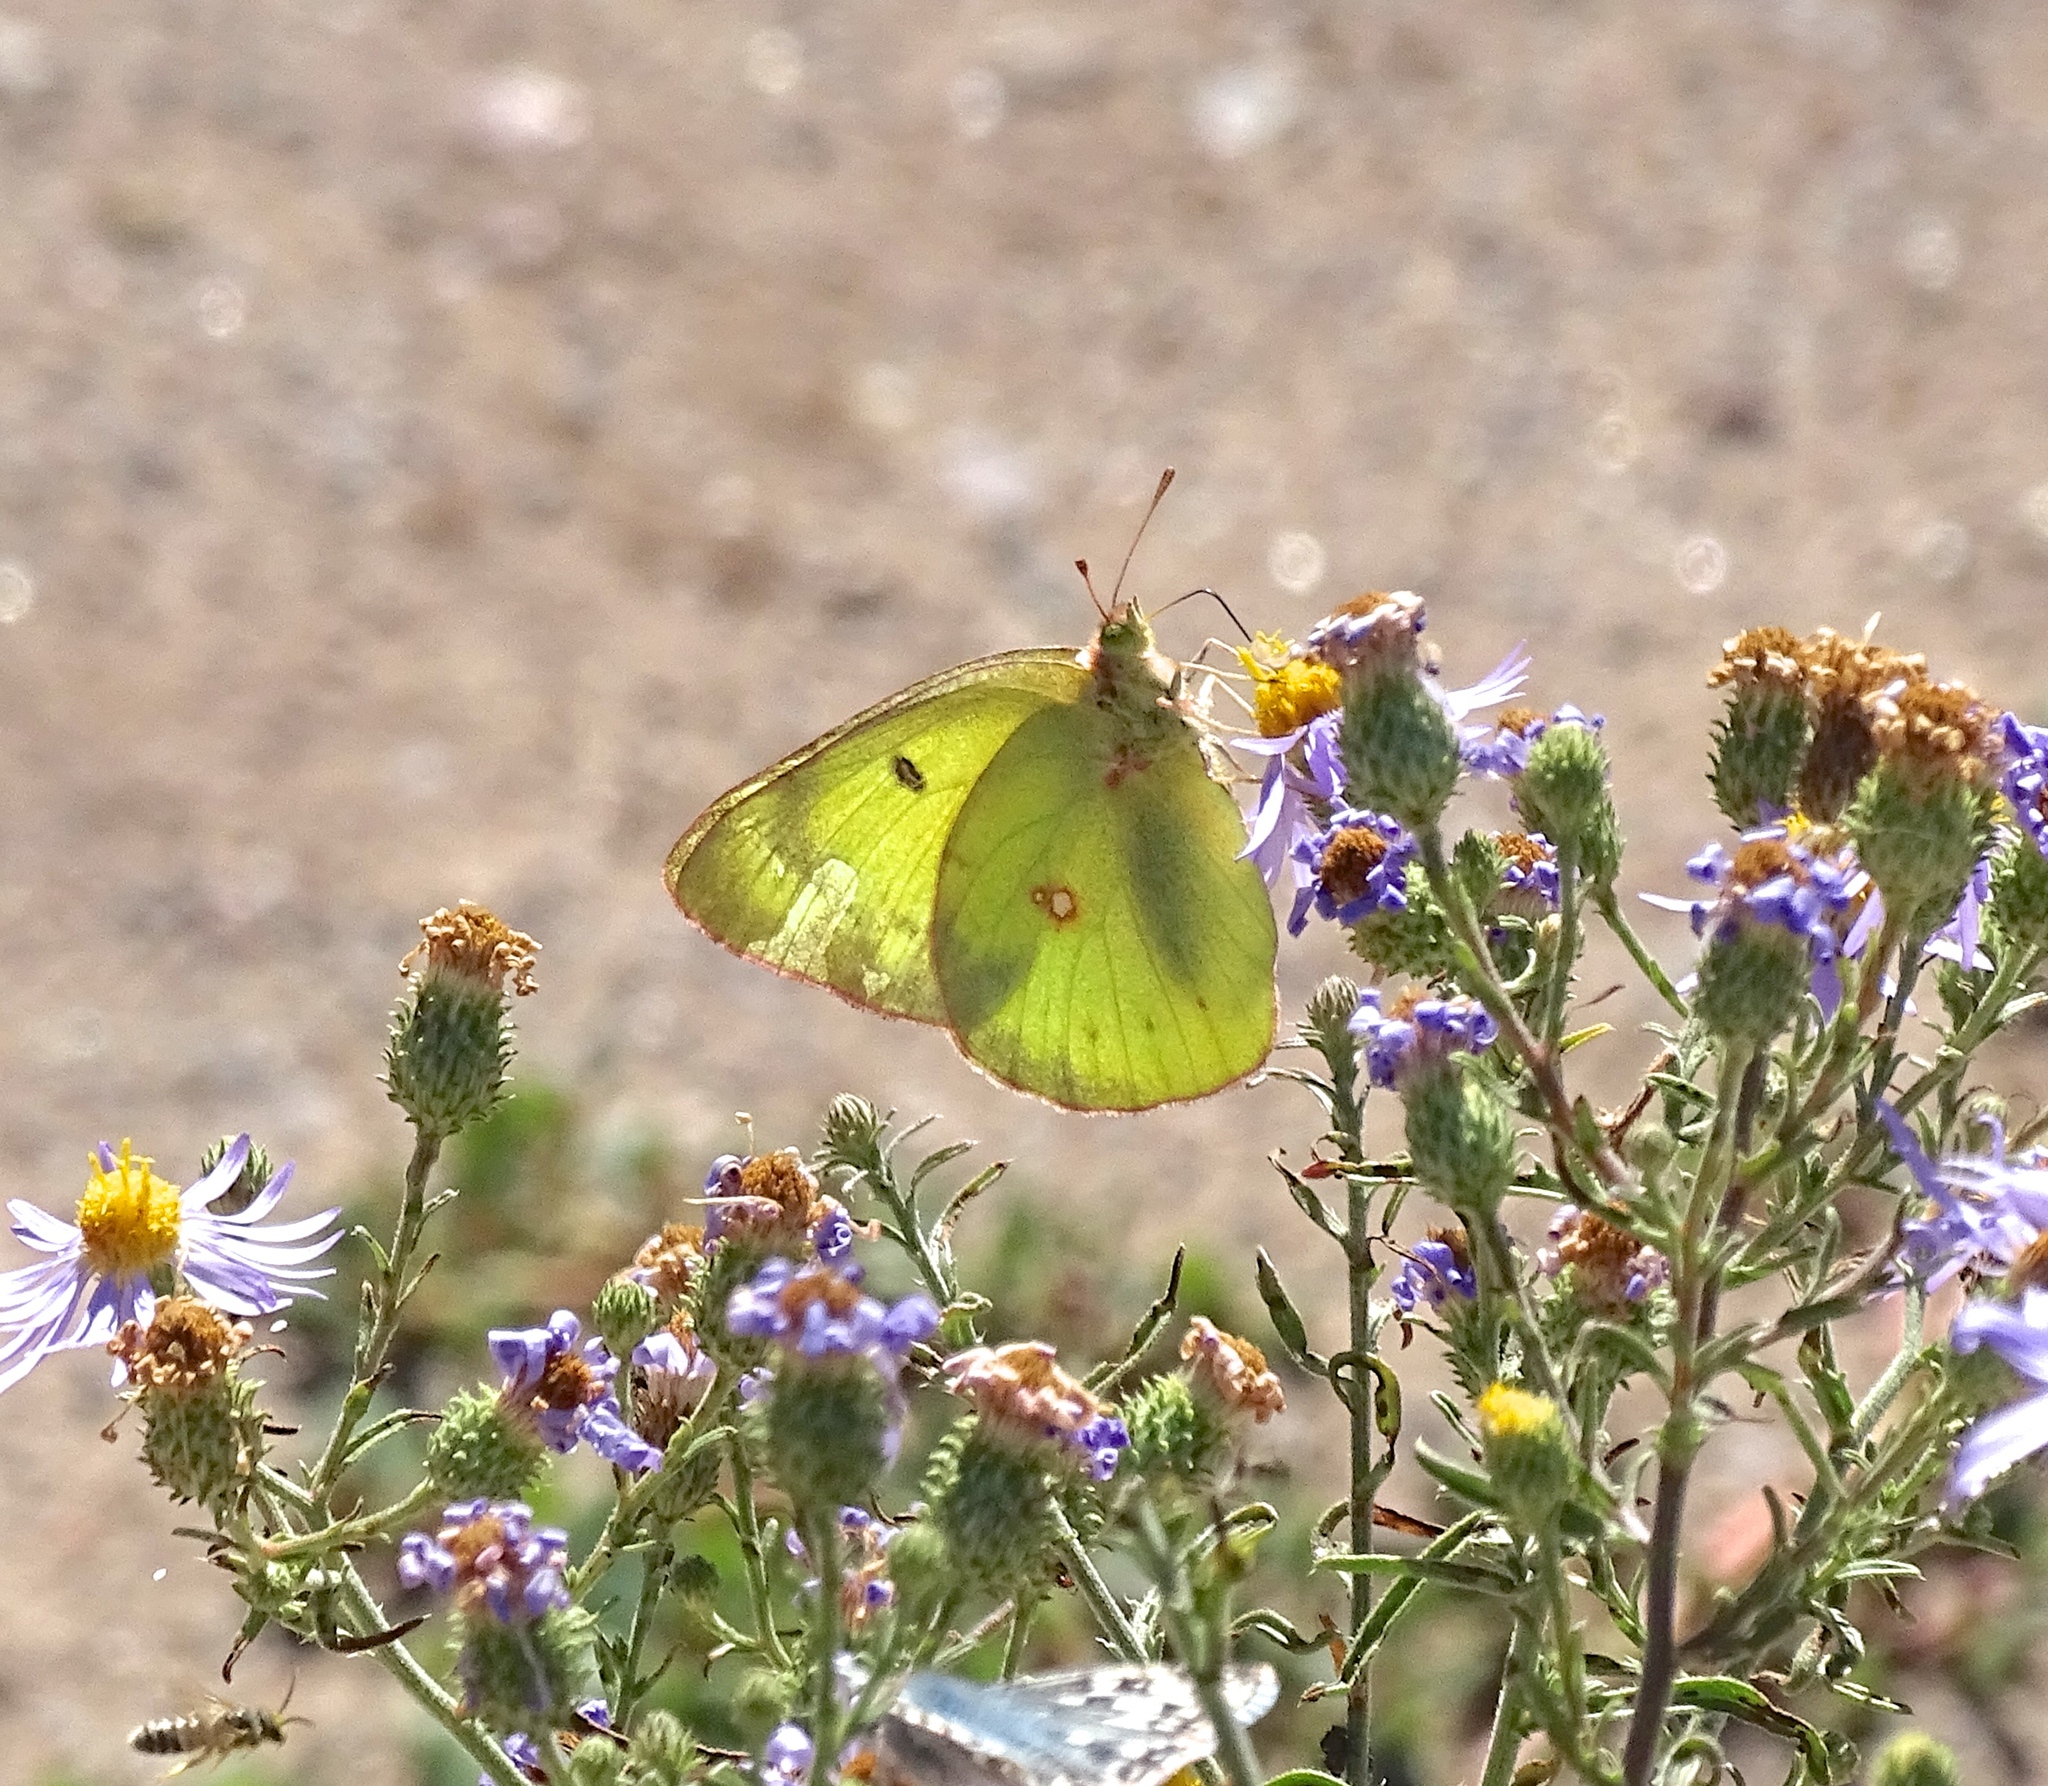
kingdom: Animalia
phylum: Arthropoda
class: Insecta
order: Lepidoptera
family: Pieridae
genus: Colias
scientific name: Colias philodice
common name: Clouded sulphur
